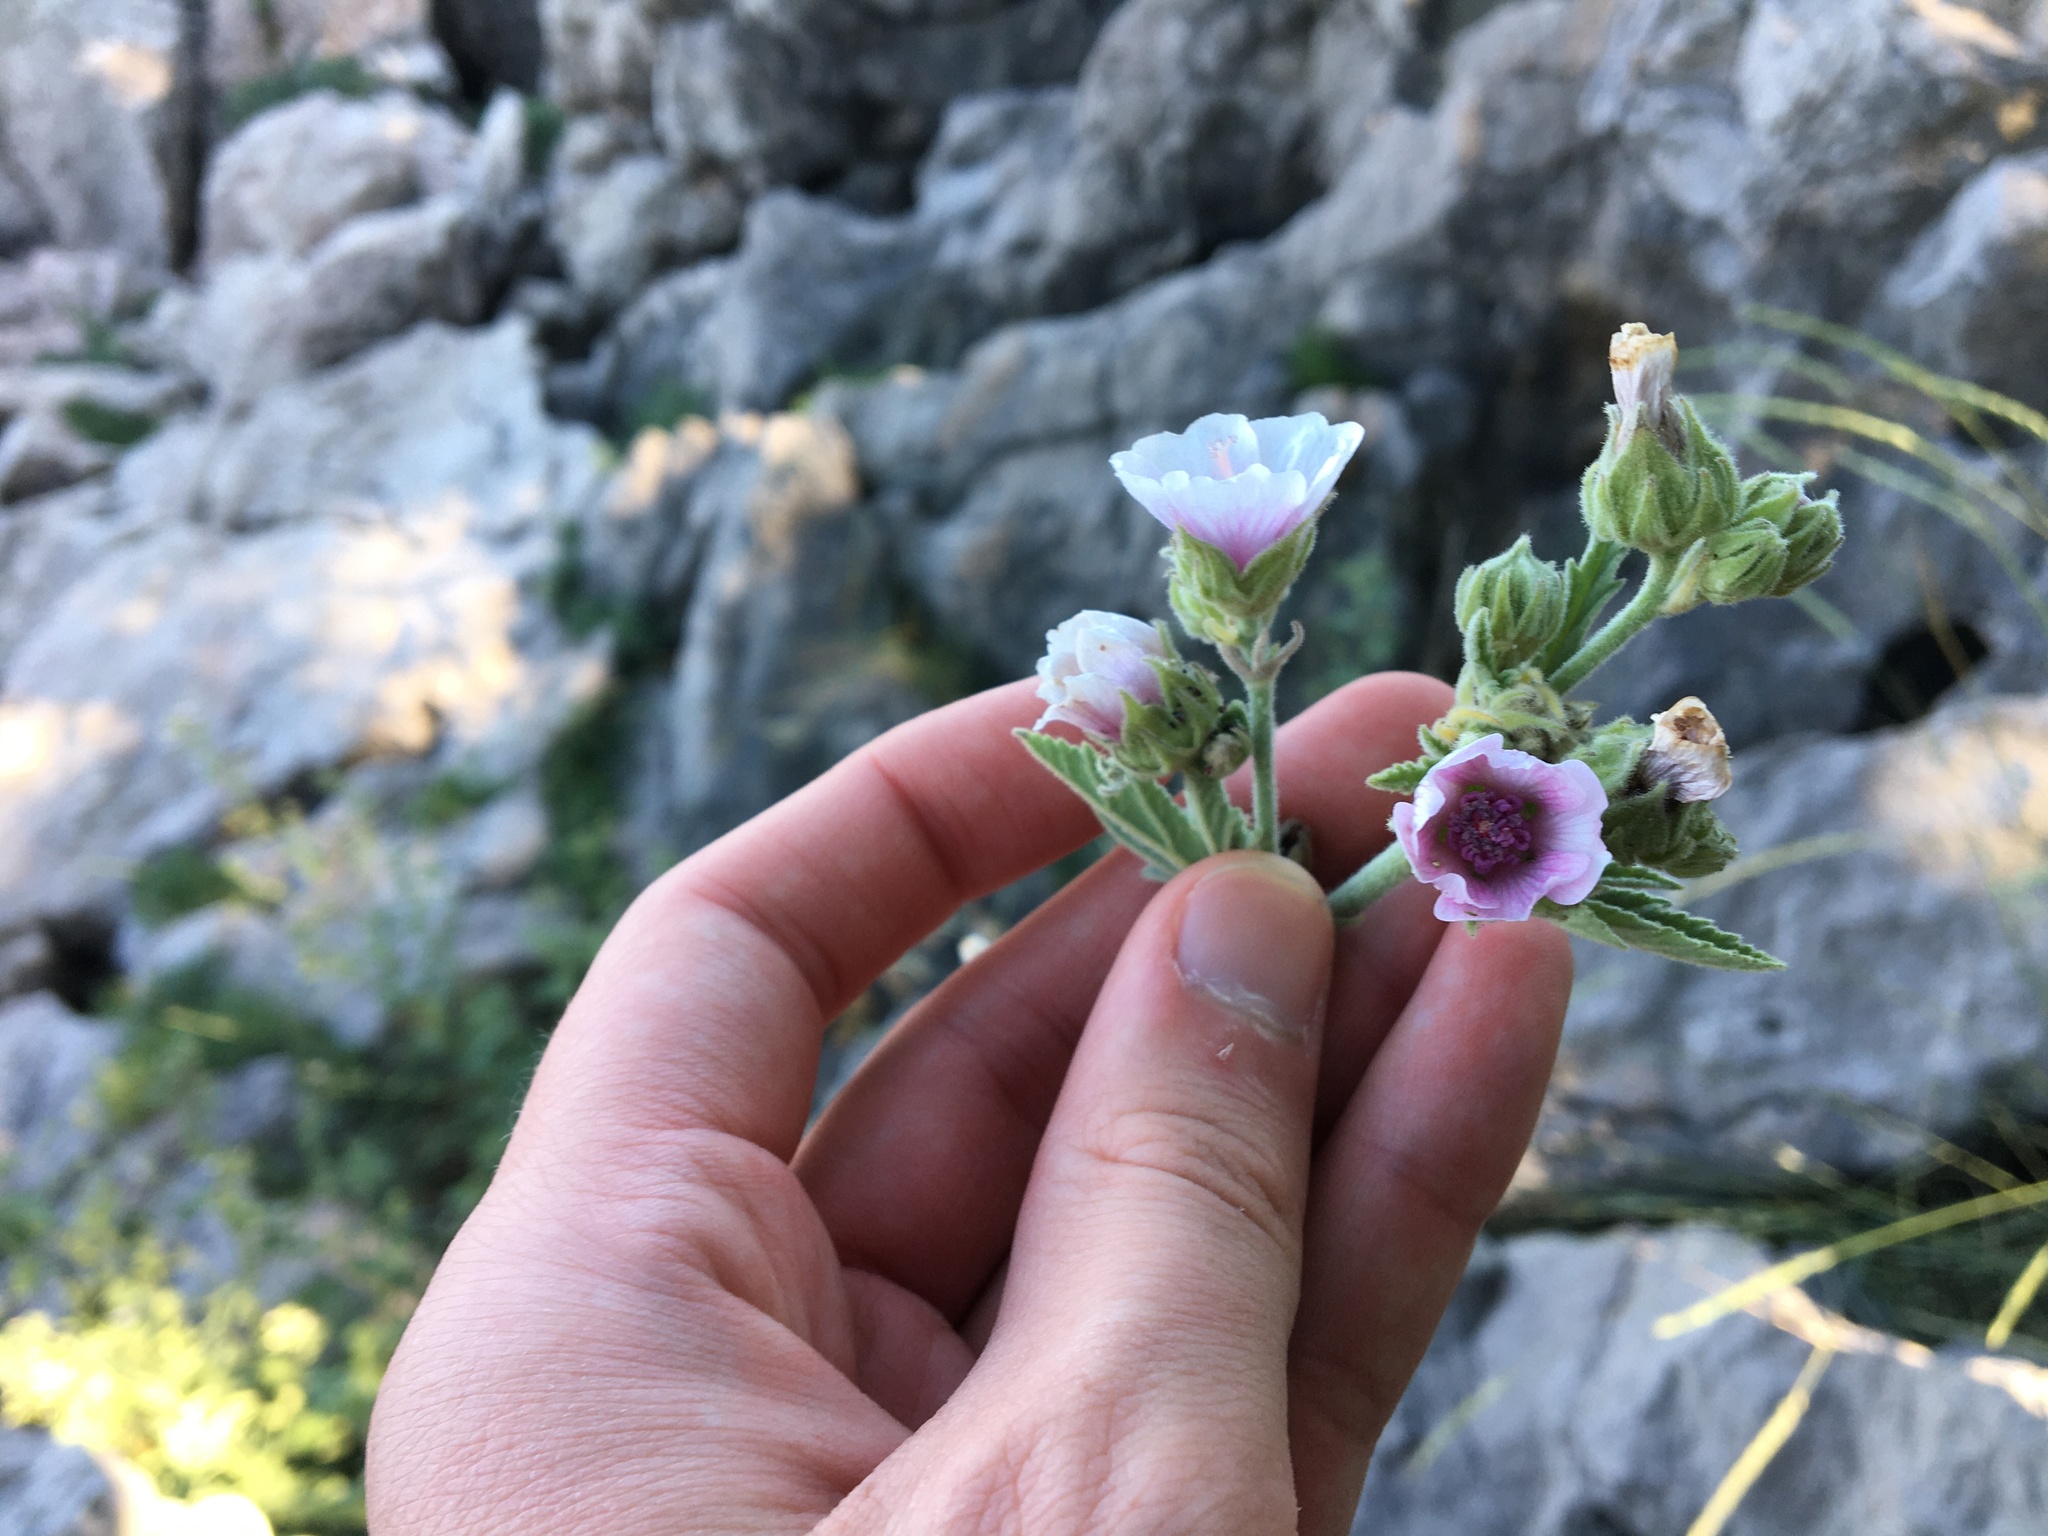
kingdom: Plantae
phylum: Tracheophyta
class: Magnoliopsida
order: Malvales
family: Malvaceae
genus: Althaea
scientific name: Althaea officinalis
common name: Marsh-mallow
